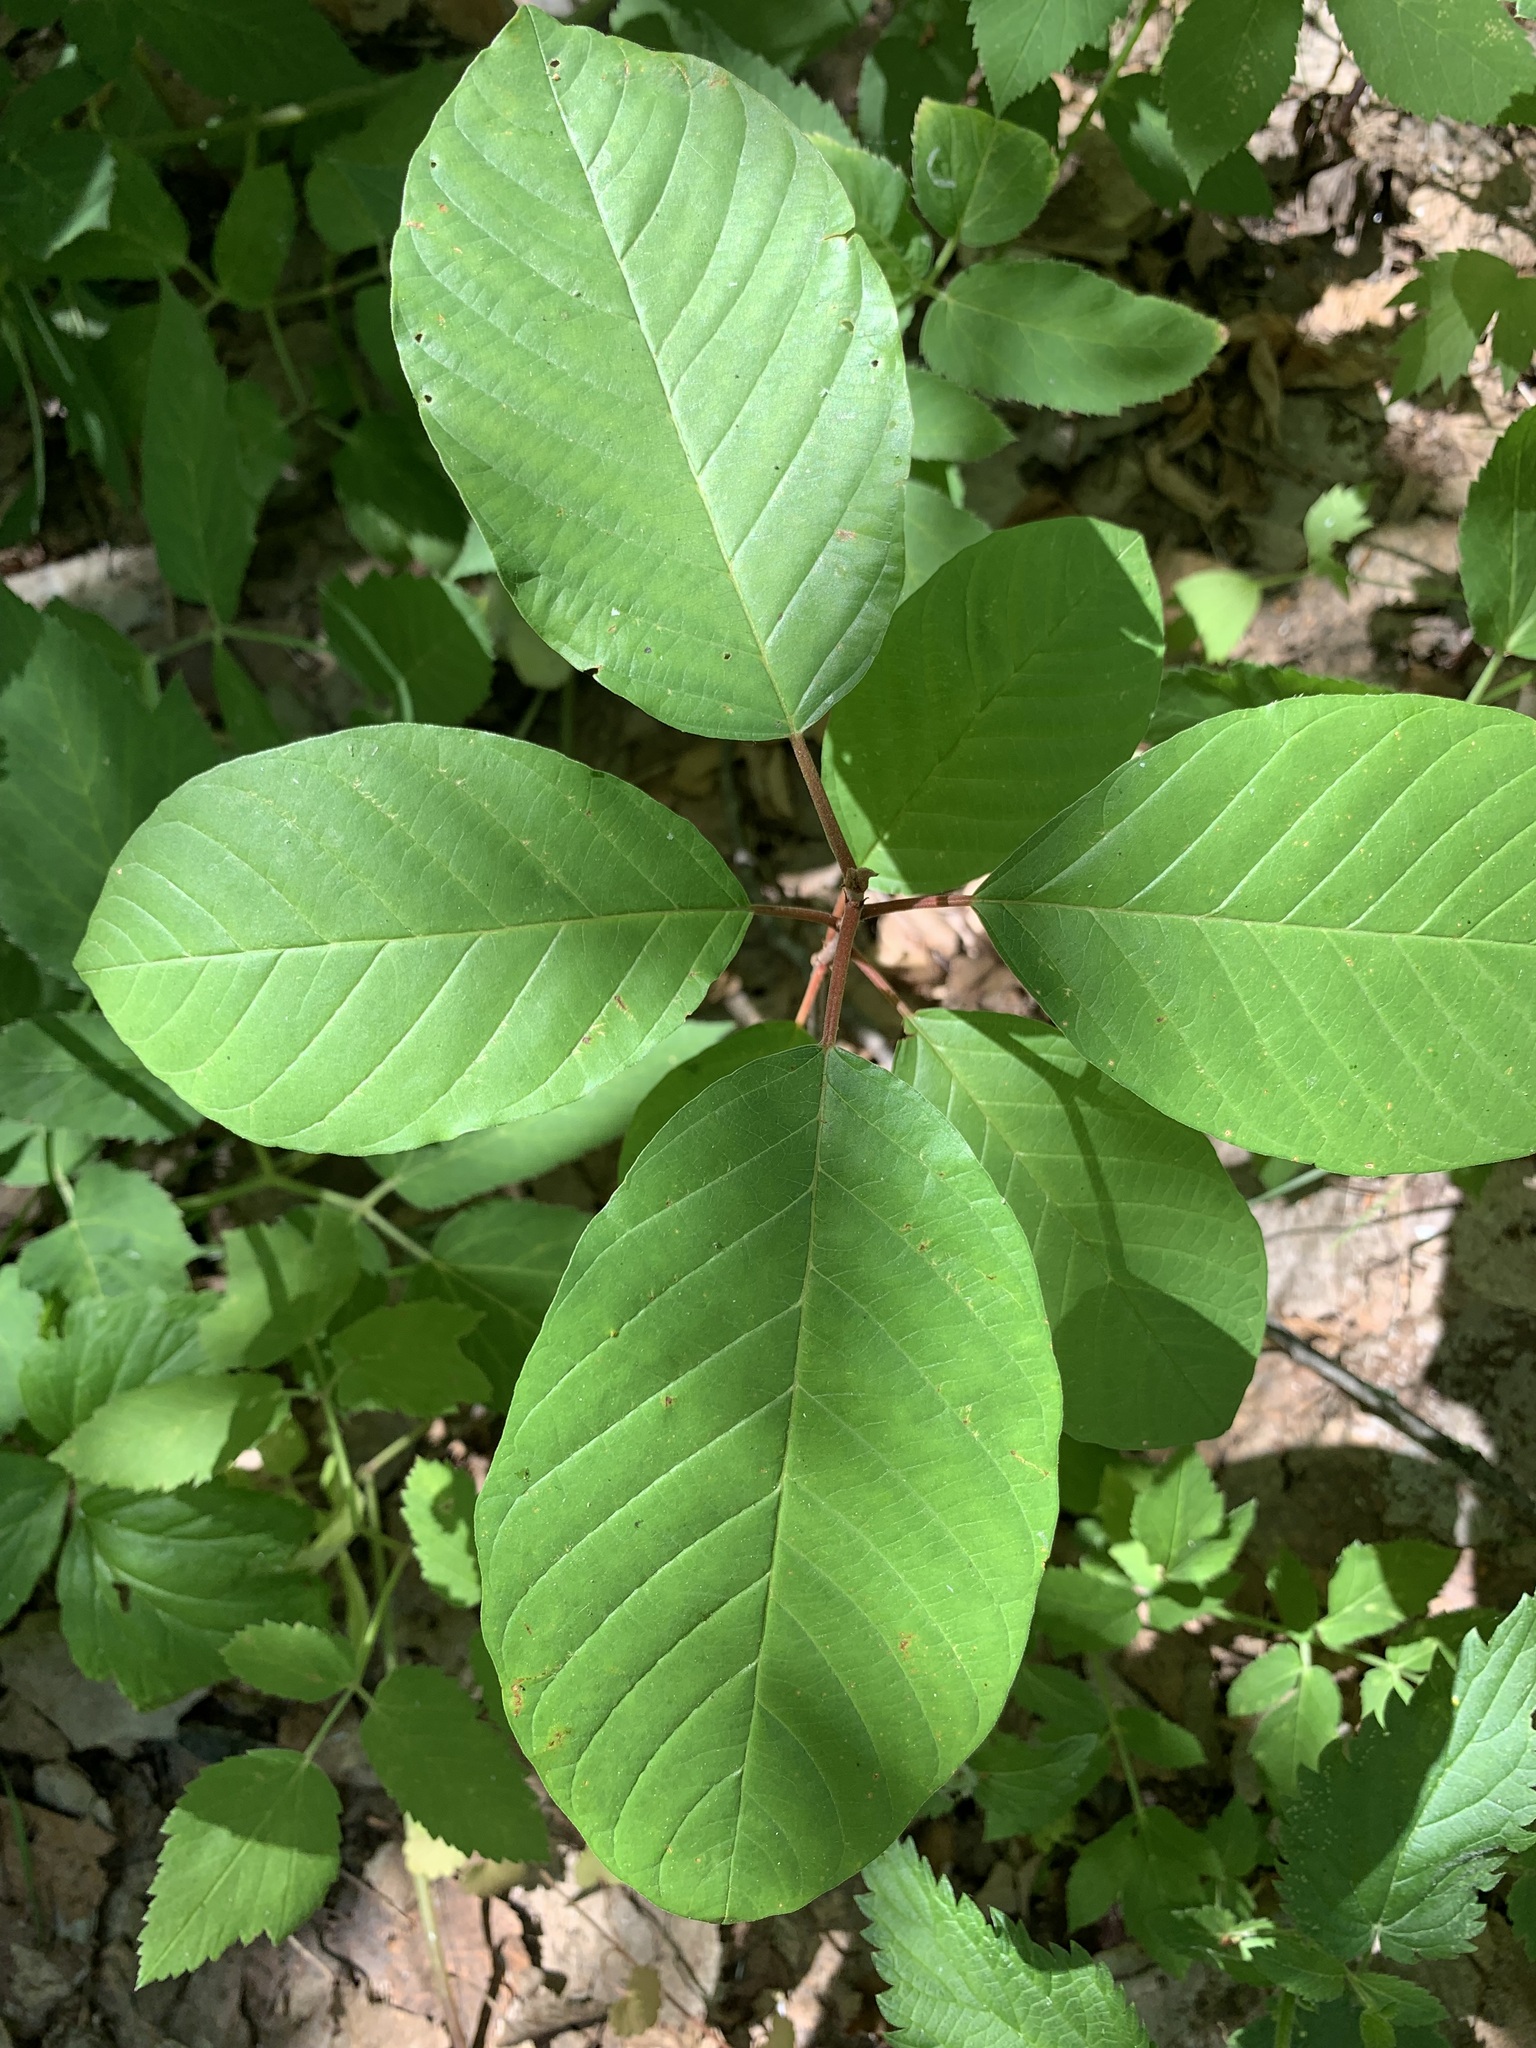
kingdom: Plantae
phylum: Tracheophyta
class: Magnoliopsida
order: Rosales
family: Rhamnaceae
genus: Frangula
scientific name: Frangula alnus
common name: Alder buckthorn
